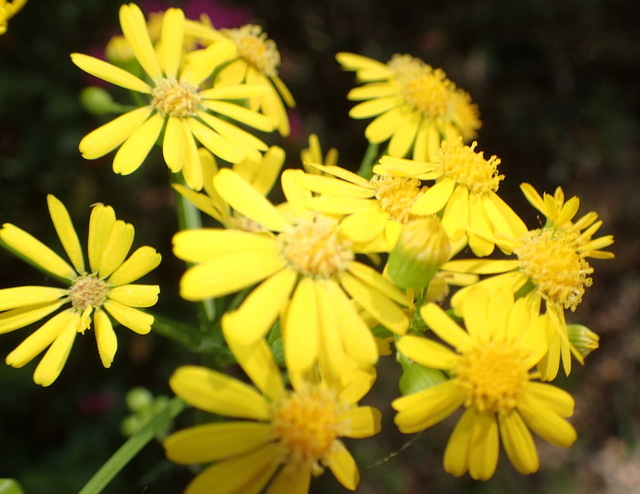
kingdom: Plantae
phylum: Tracheophyta
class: Magnoliopsida
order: Asterales
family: Asteraceae
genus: Packera
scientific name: Packera glabella
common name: Butterweed
